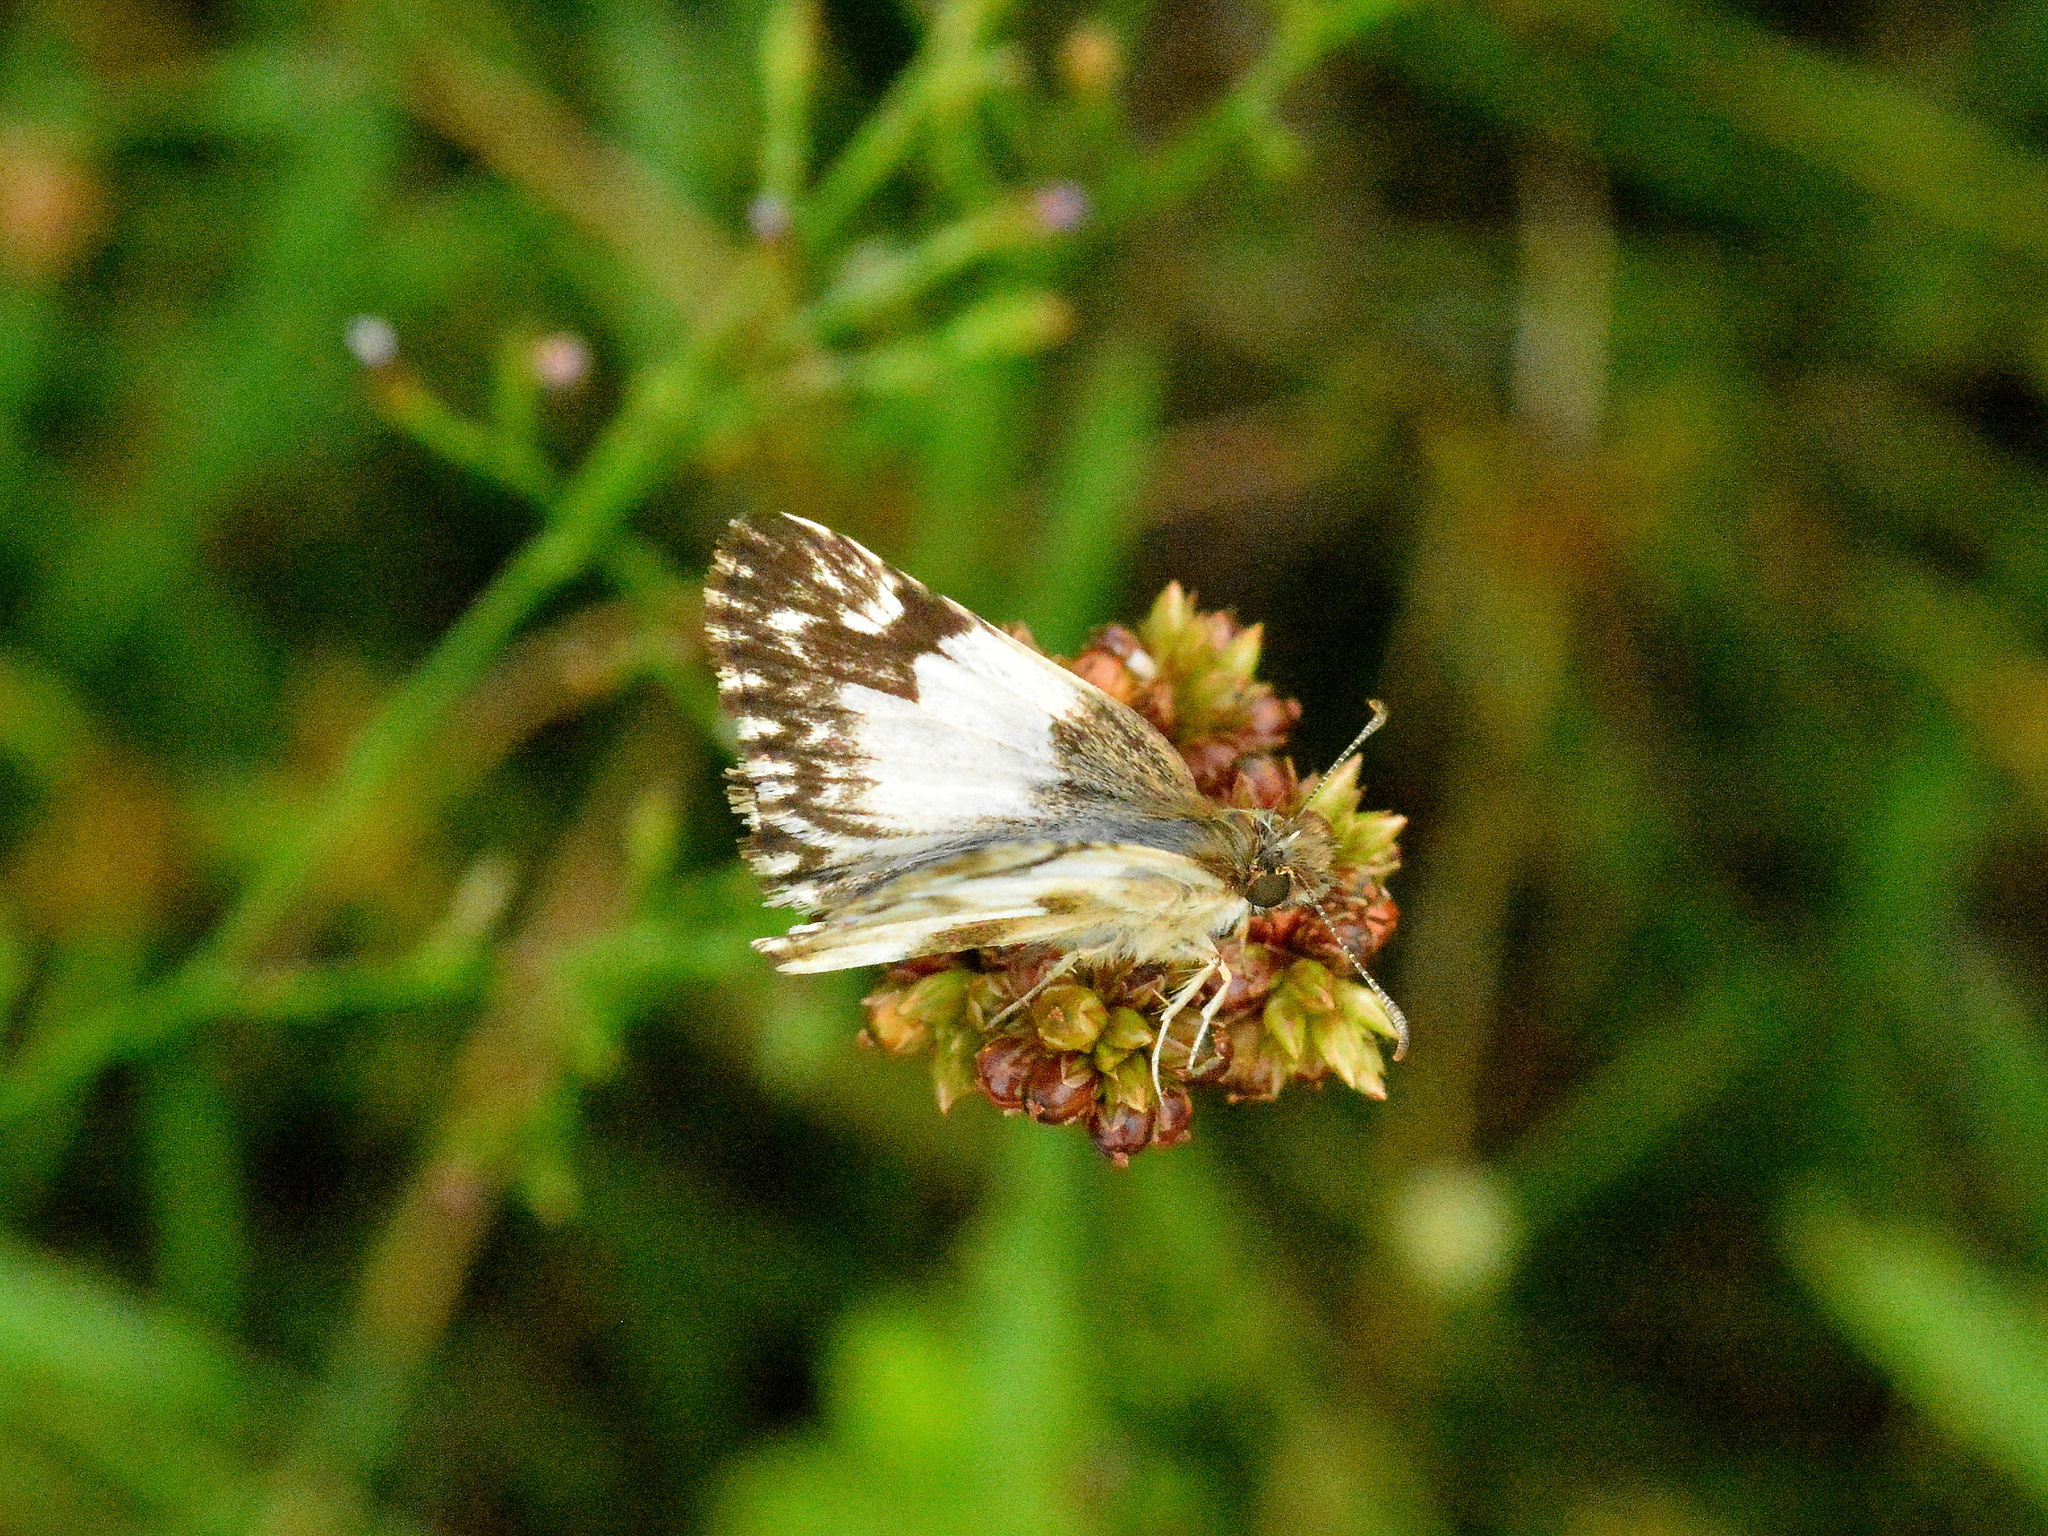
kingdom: Animalia
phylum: Arthropoda
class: Insecta
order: Lepidoptera
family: Hesperiidae
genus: Heliopetes
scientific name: Heliopetes omrina
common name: Stained white-skipper
